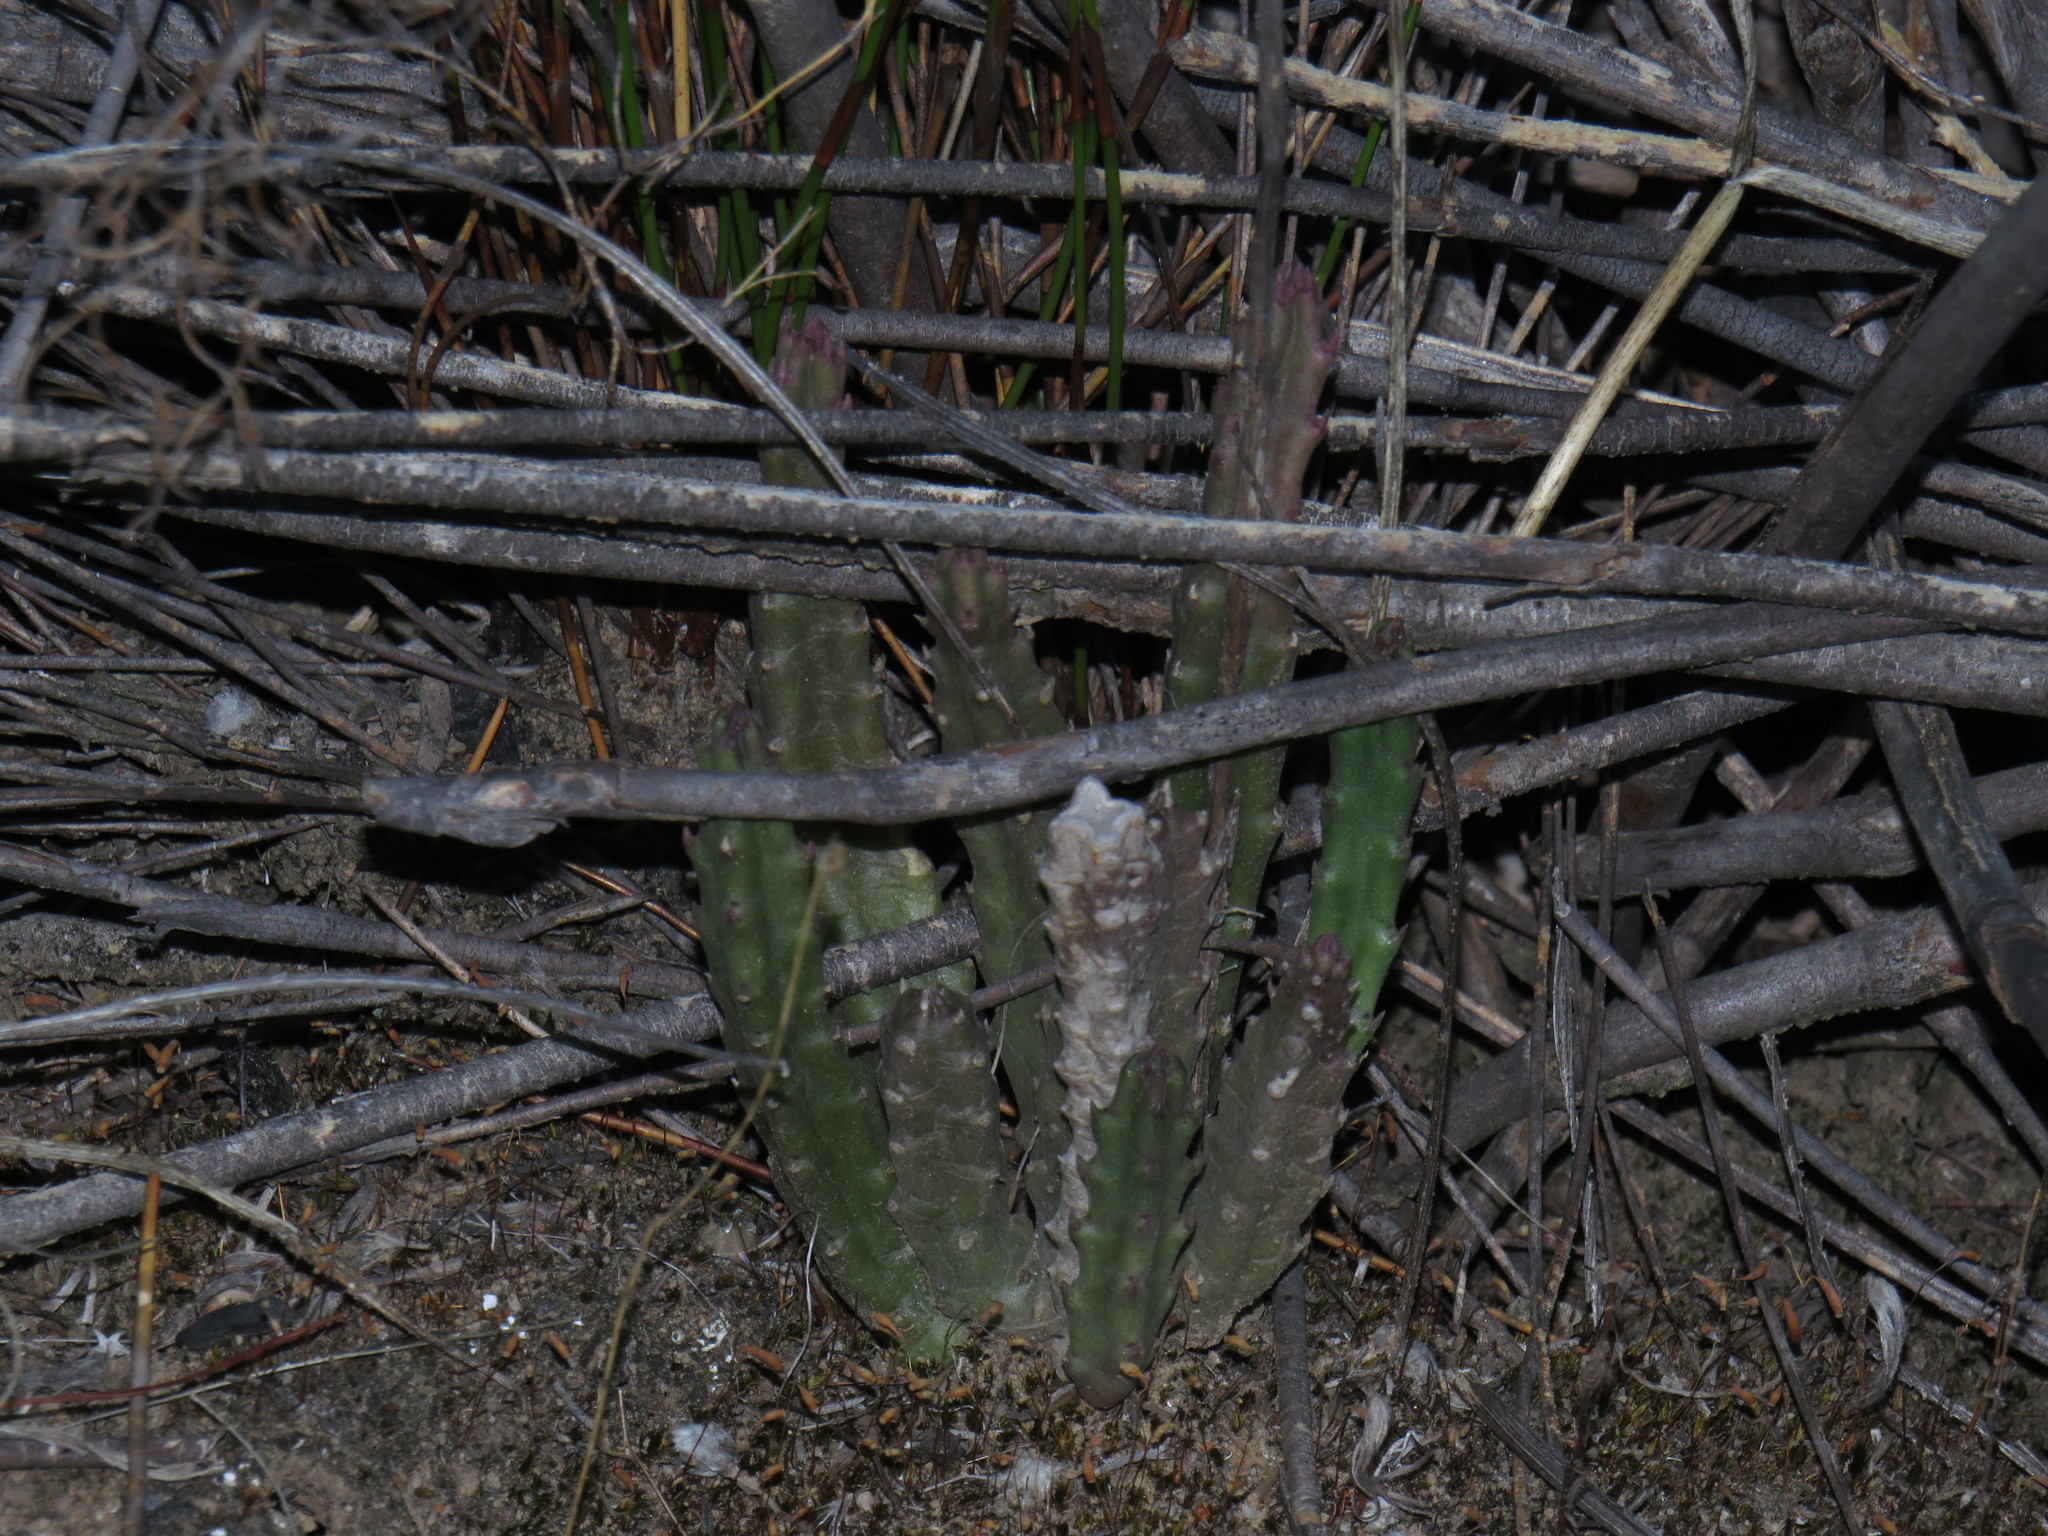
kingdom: Plantae
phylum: Tracheophyta
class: Magnoliopsida
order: Gentianales
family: Apocynaceae
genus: Ceropegia
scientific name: Ceropegia pulvinata
